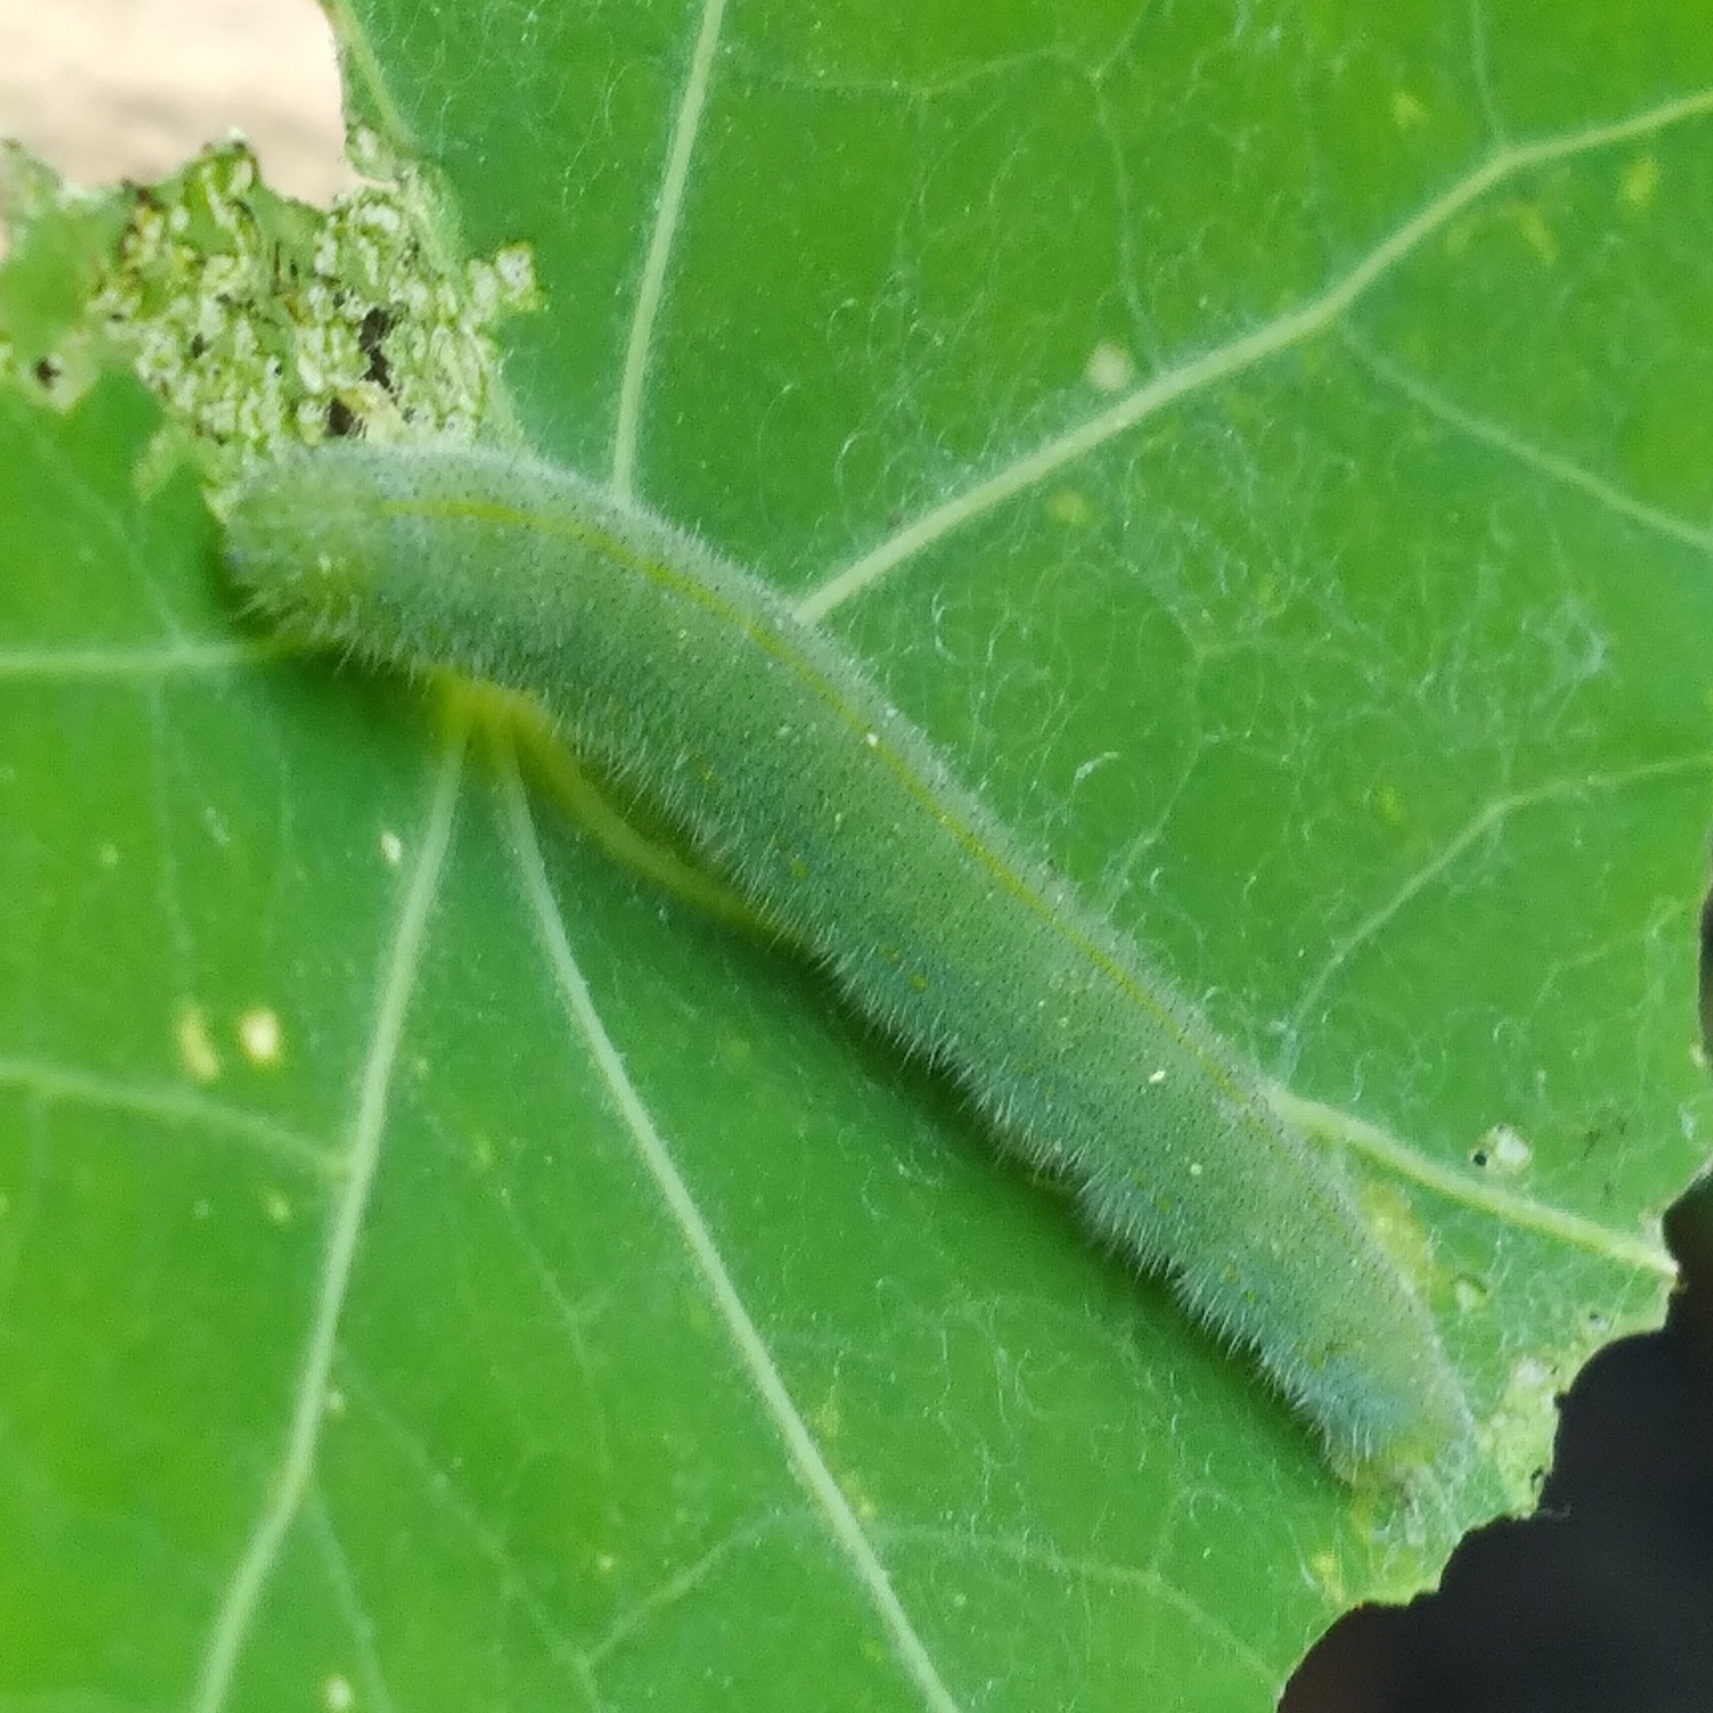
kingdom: Animalia
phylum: Arthropoda
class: Insecta
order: Lepidoptera
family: Pieridae
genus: Pieris
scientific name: Pieris rapae
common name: Small white
